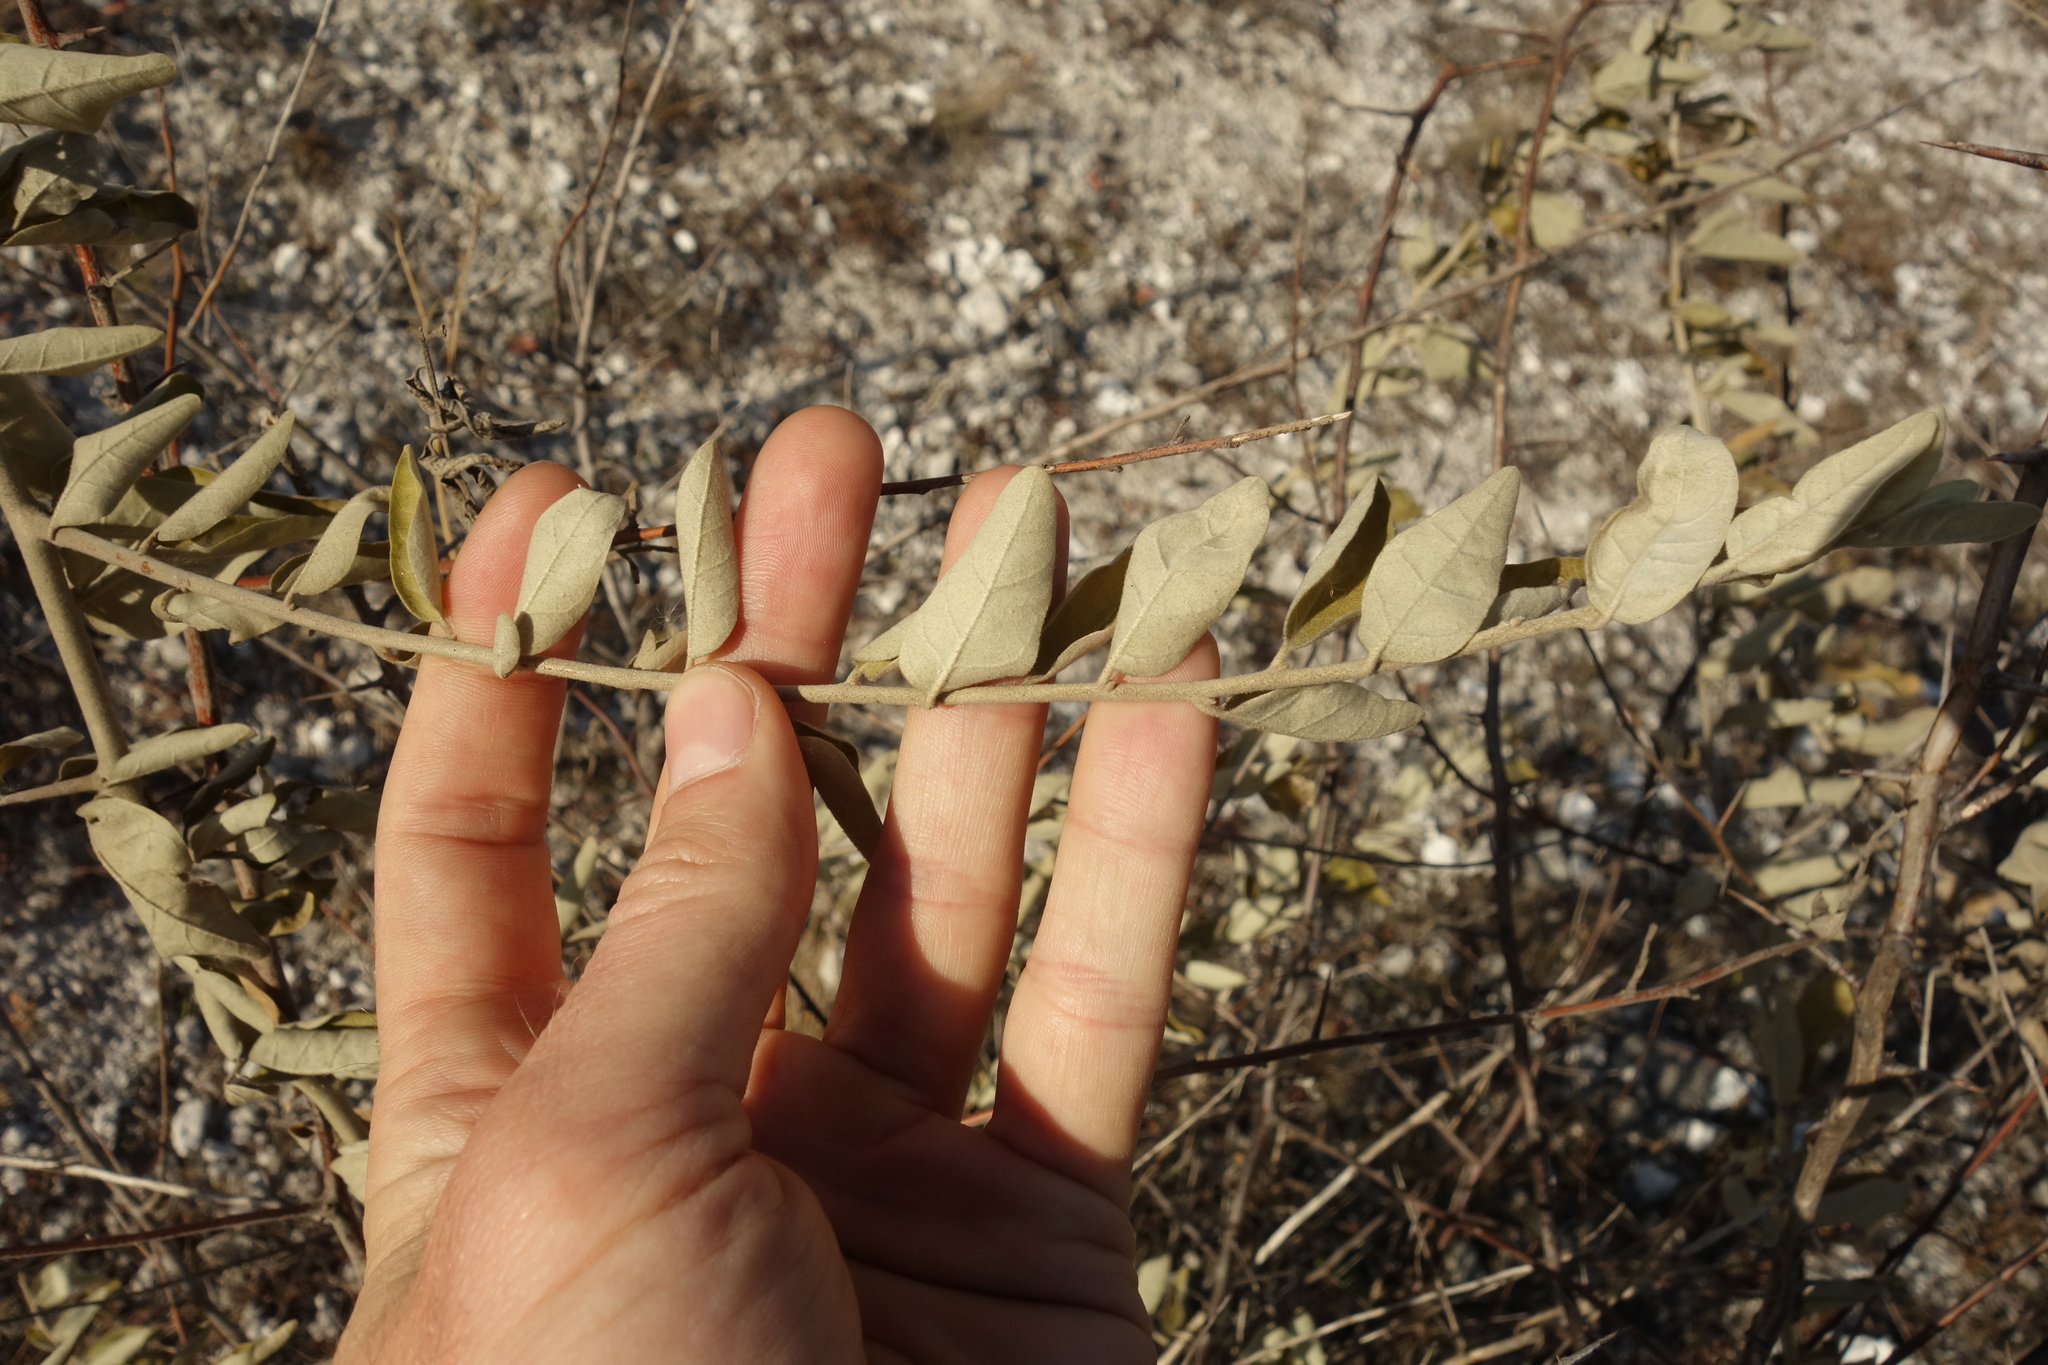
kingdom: Plantae
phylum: Tracheophyta
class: Magnoliopsida
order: Rosales
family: Elaeagnaceae
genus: Elaeagnus
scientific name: Elaeagnus angustifolia
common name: Russian olive
